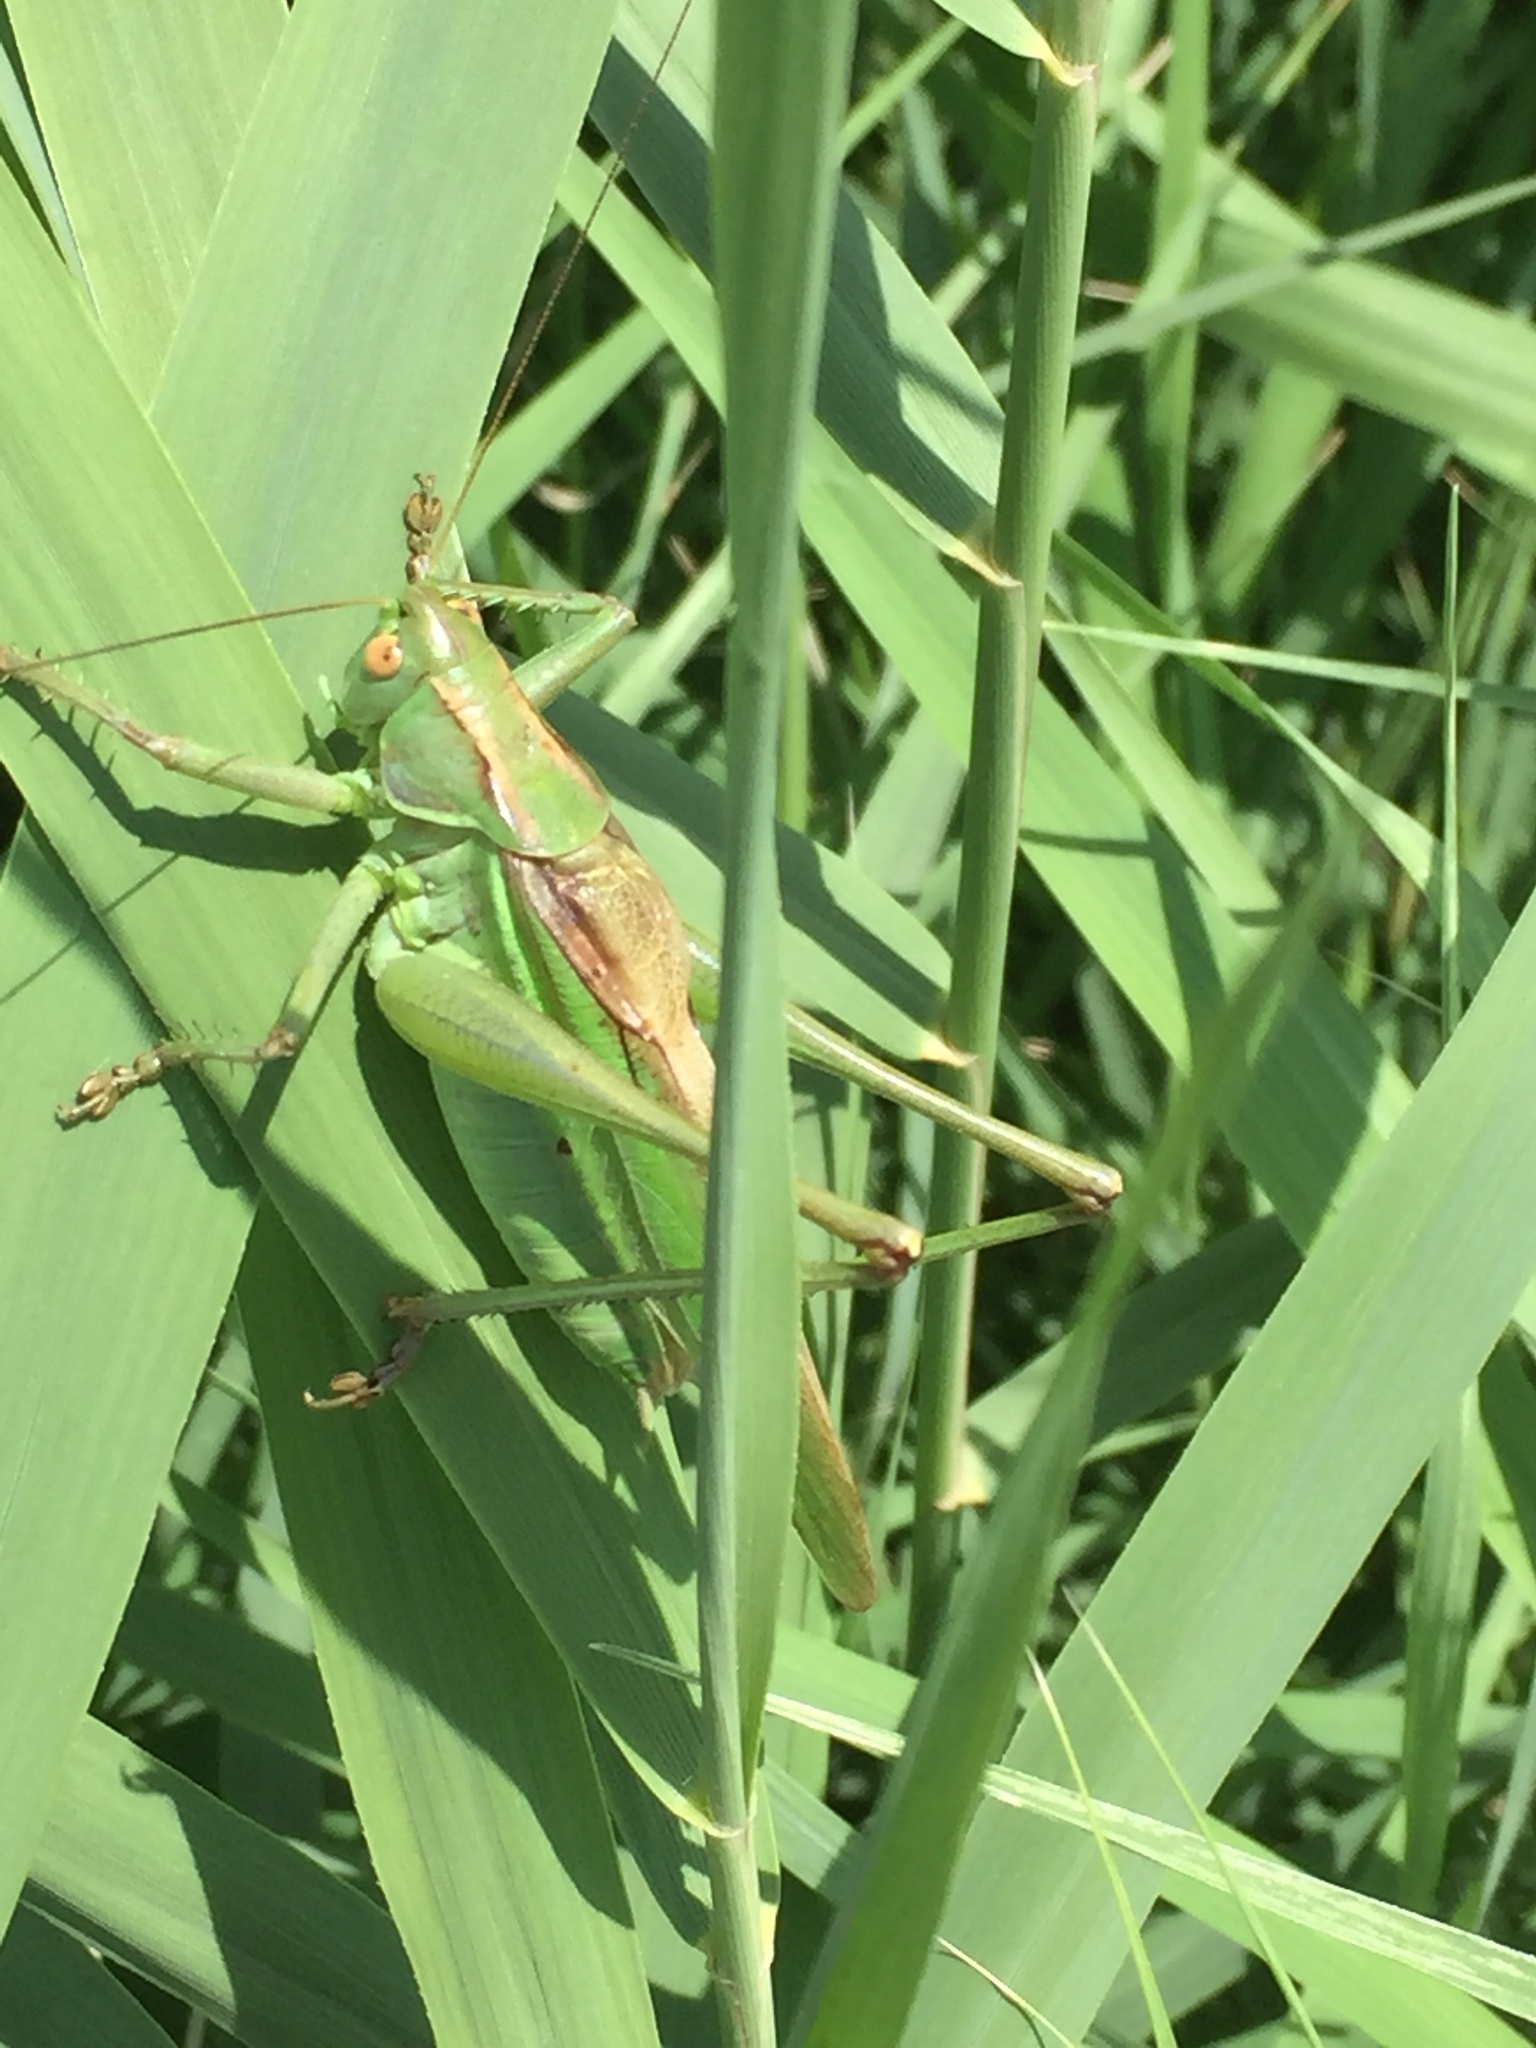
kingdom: Animalia
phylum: Arthropoda
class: Insecta
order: Orthoptera
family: Tettigoniidae
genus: Gampsocleis
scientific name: Gampsocleis schelkovnikovae
